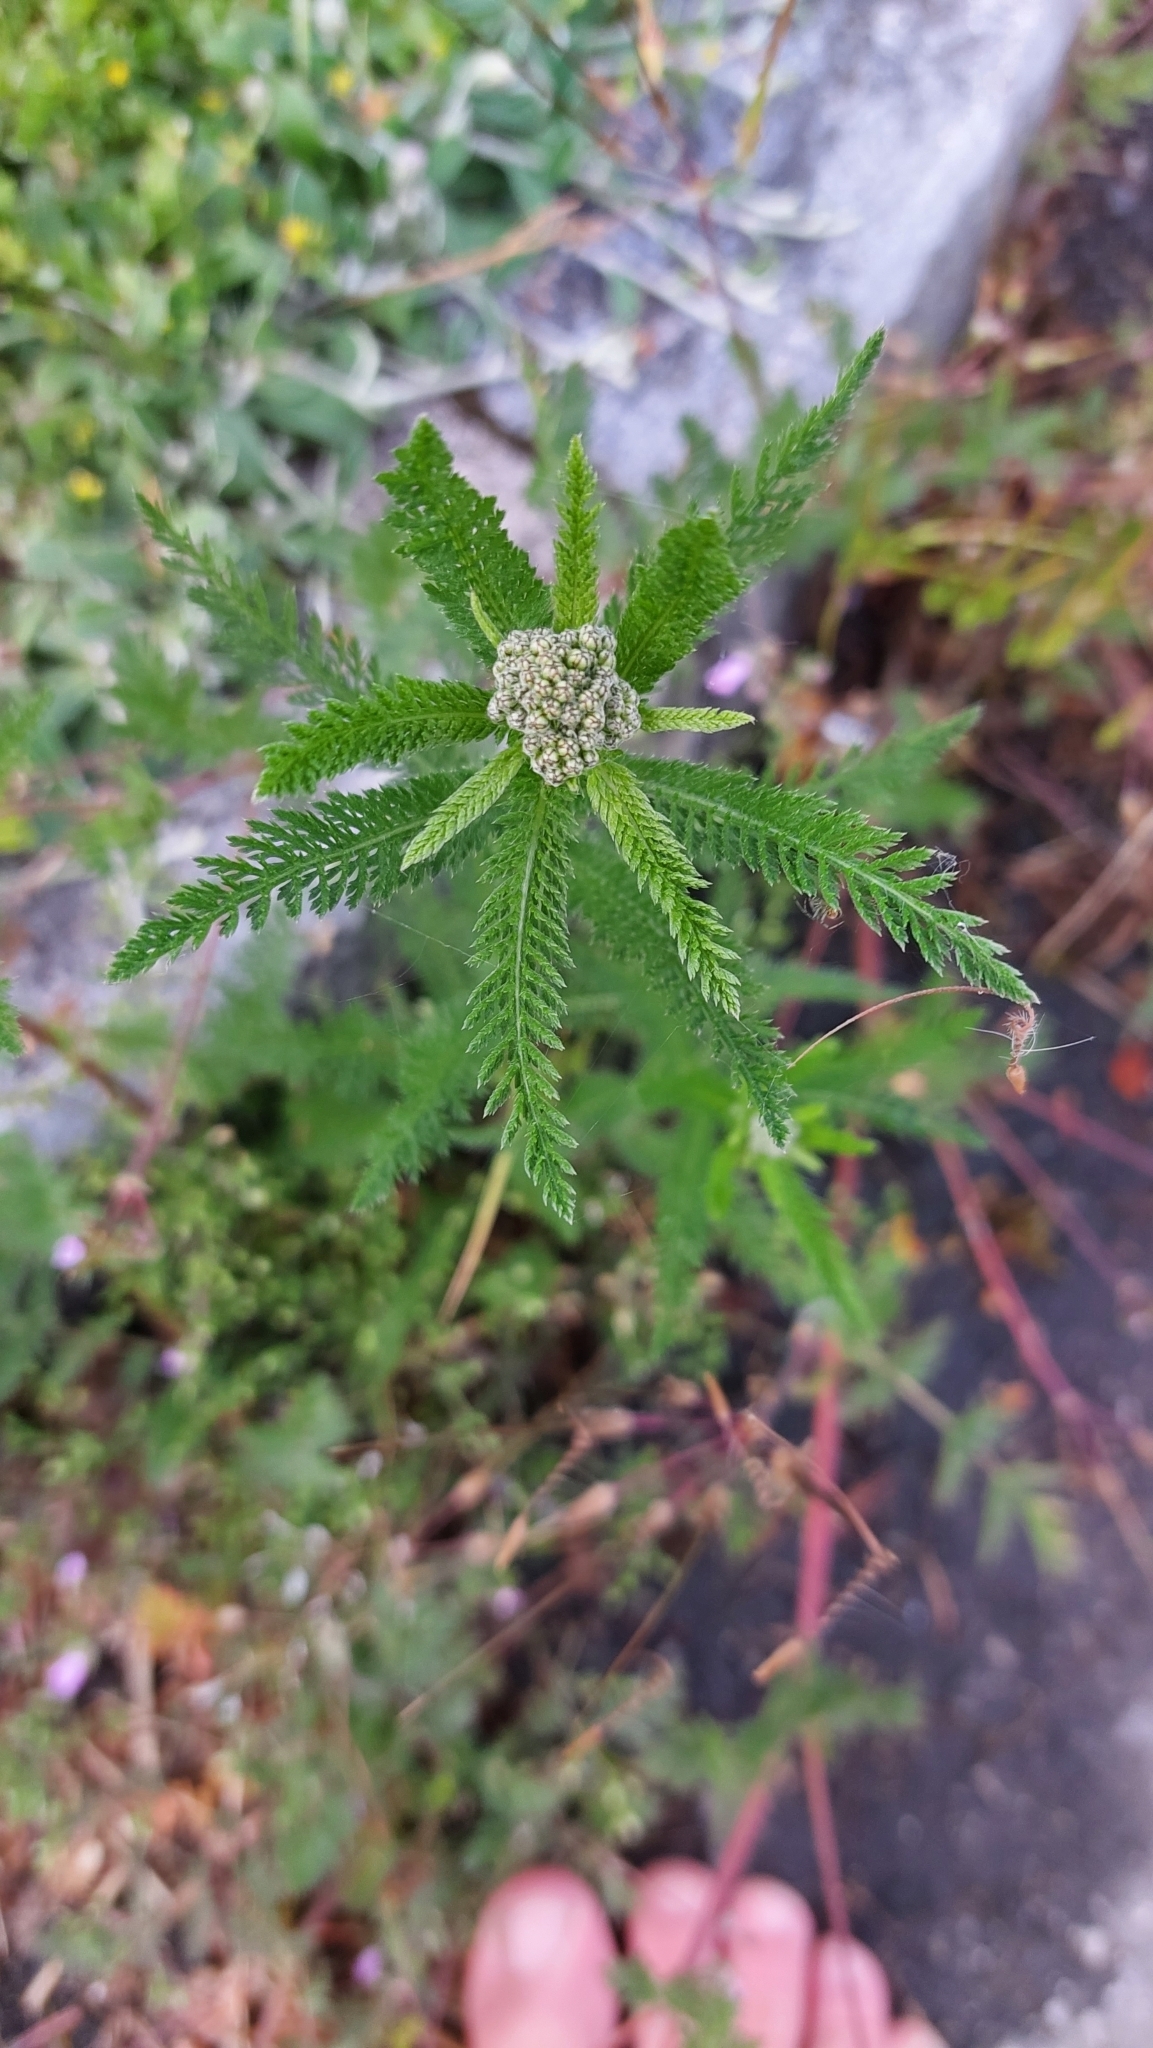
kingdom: Plantae
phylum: Tracheophyta
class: Magnoliopsida
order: Asterales
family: Asteraceae
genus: Achillea
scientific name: Achillea millefolium
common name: Yarrow
